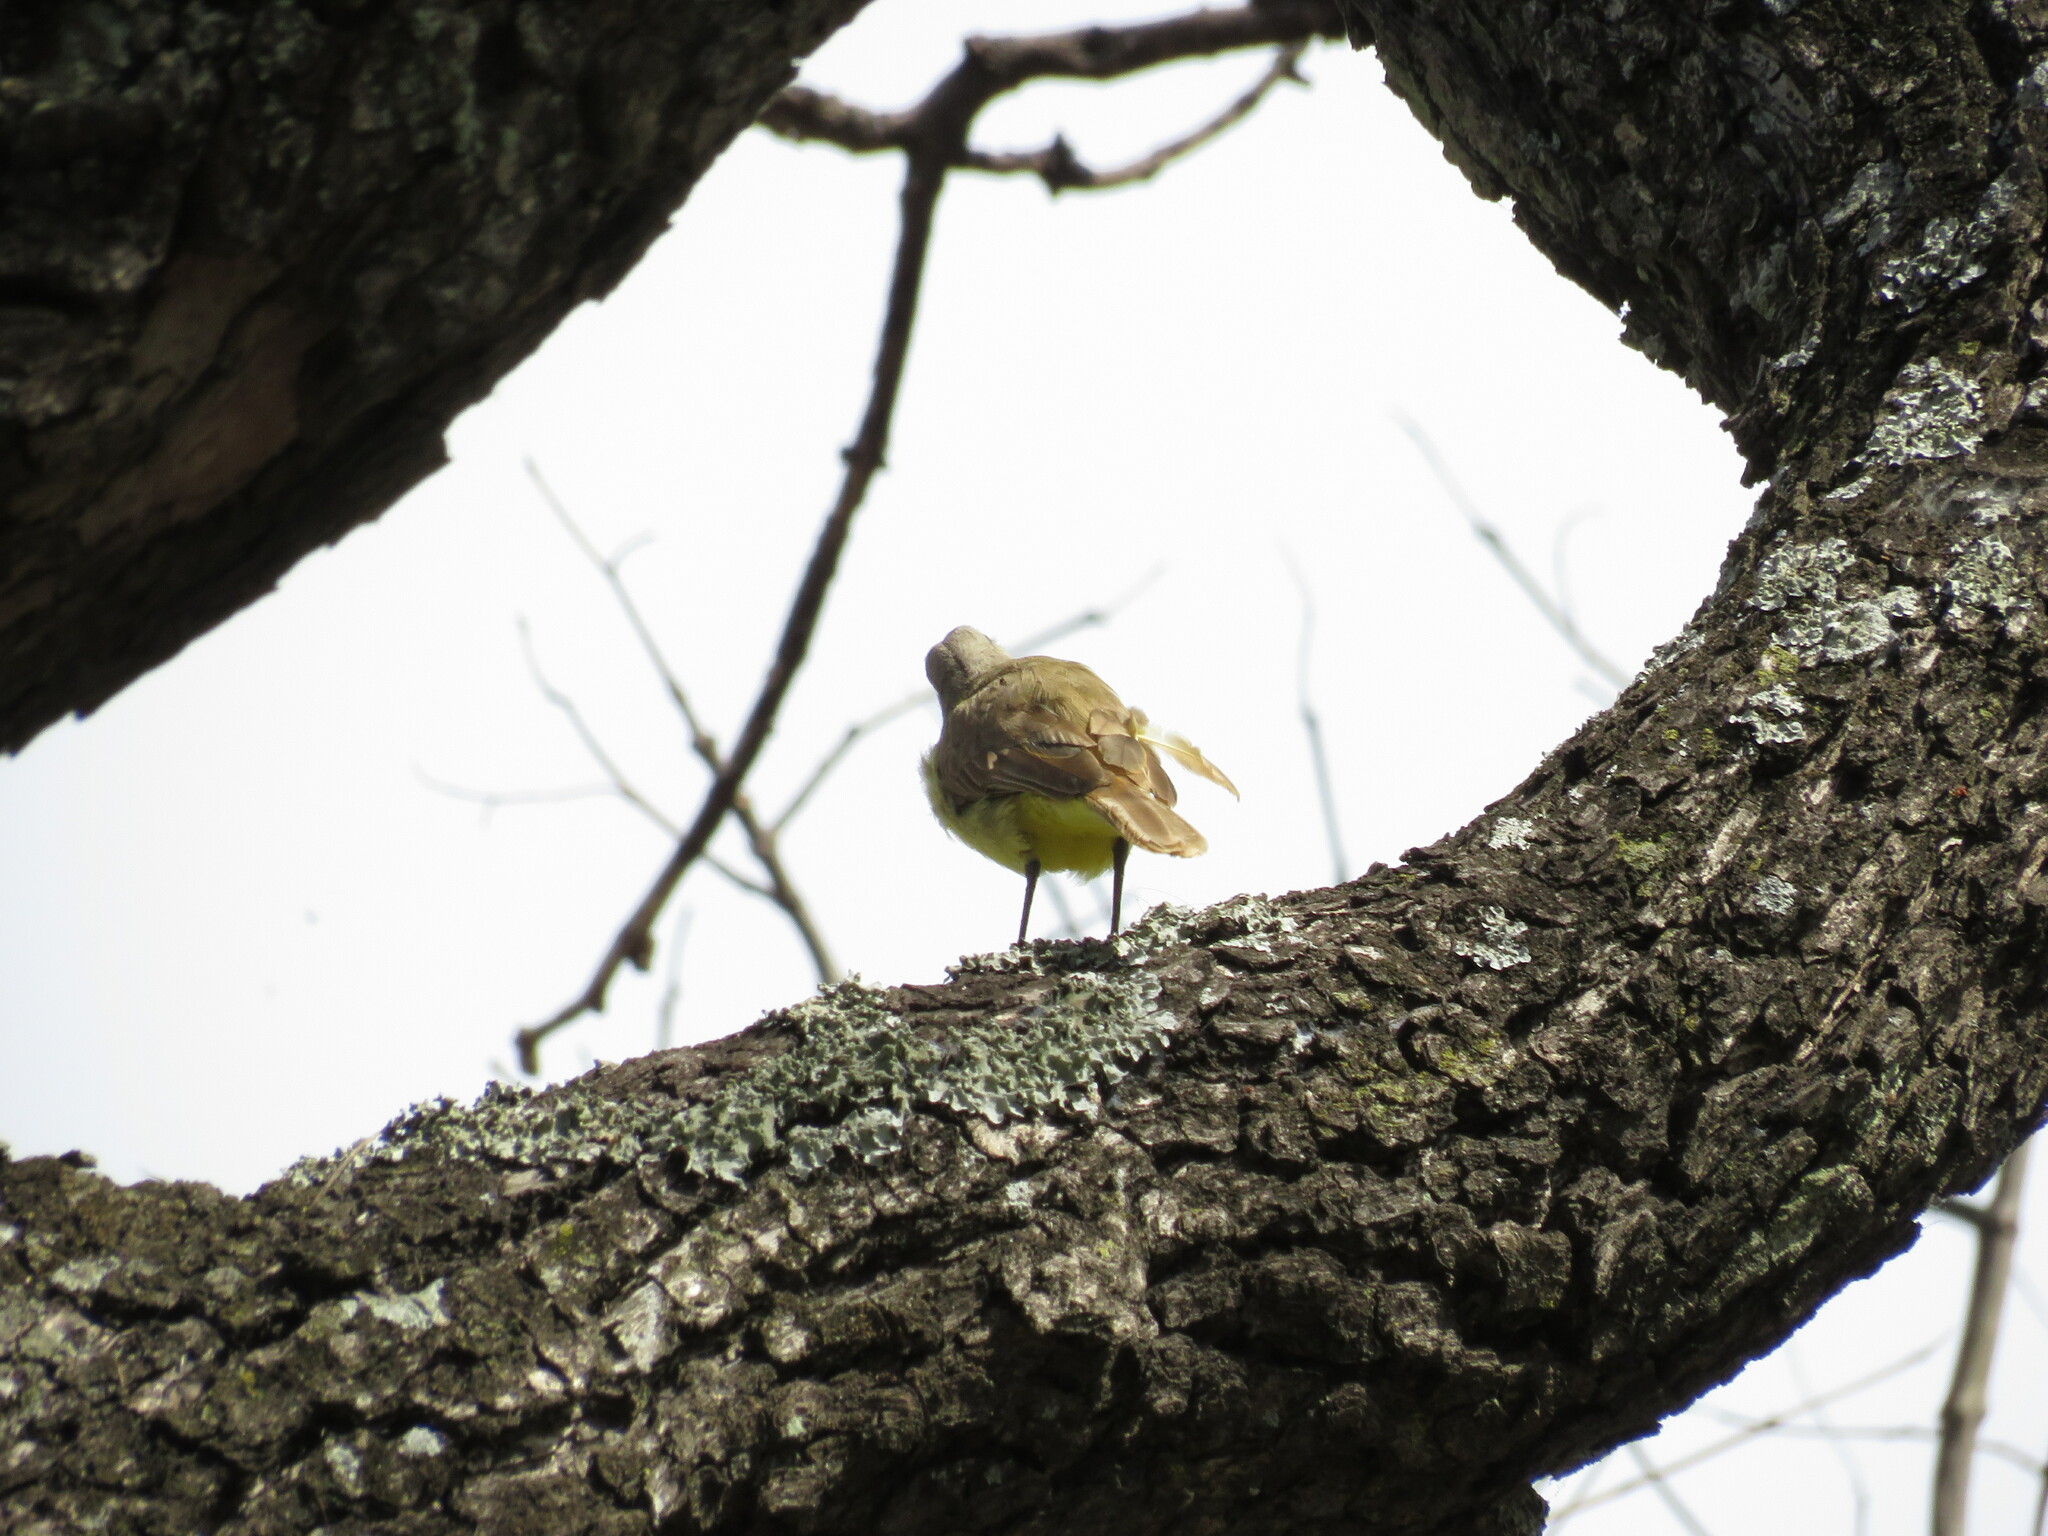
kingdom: Animalia
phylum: Chordata
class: Aves
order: Passeriformes
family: Tyrannidae
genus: Machetornis
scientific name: Machetornis rixosa
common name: Cattle tyrant
